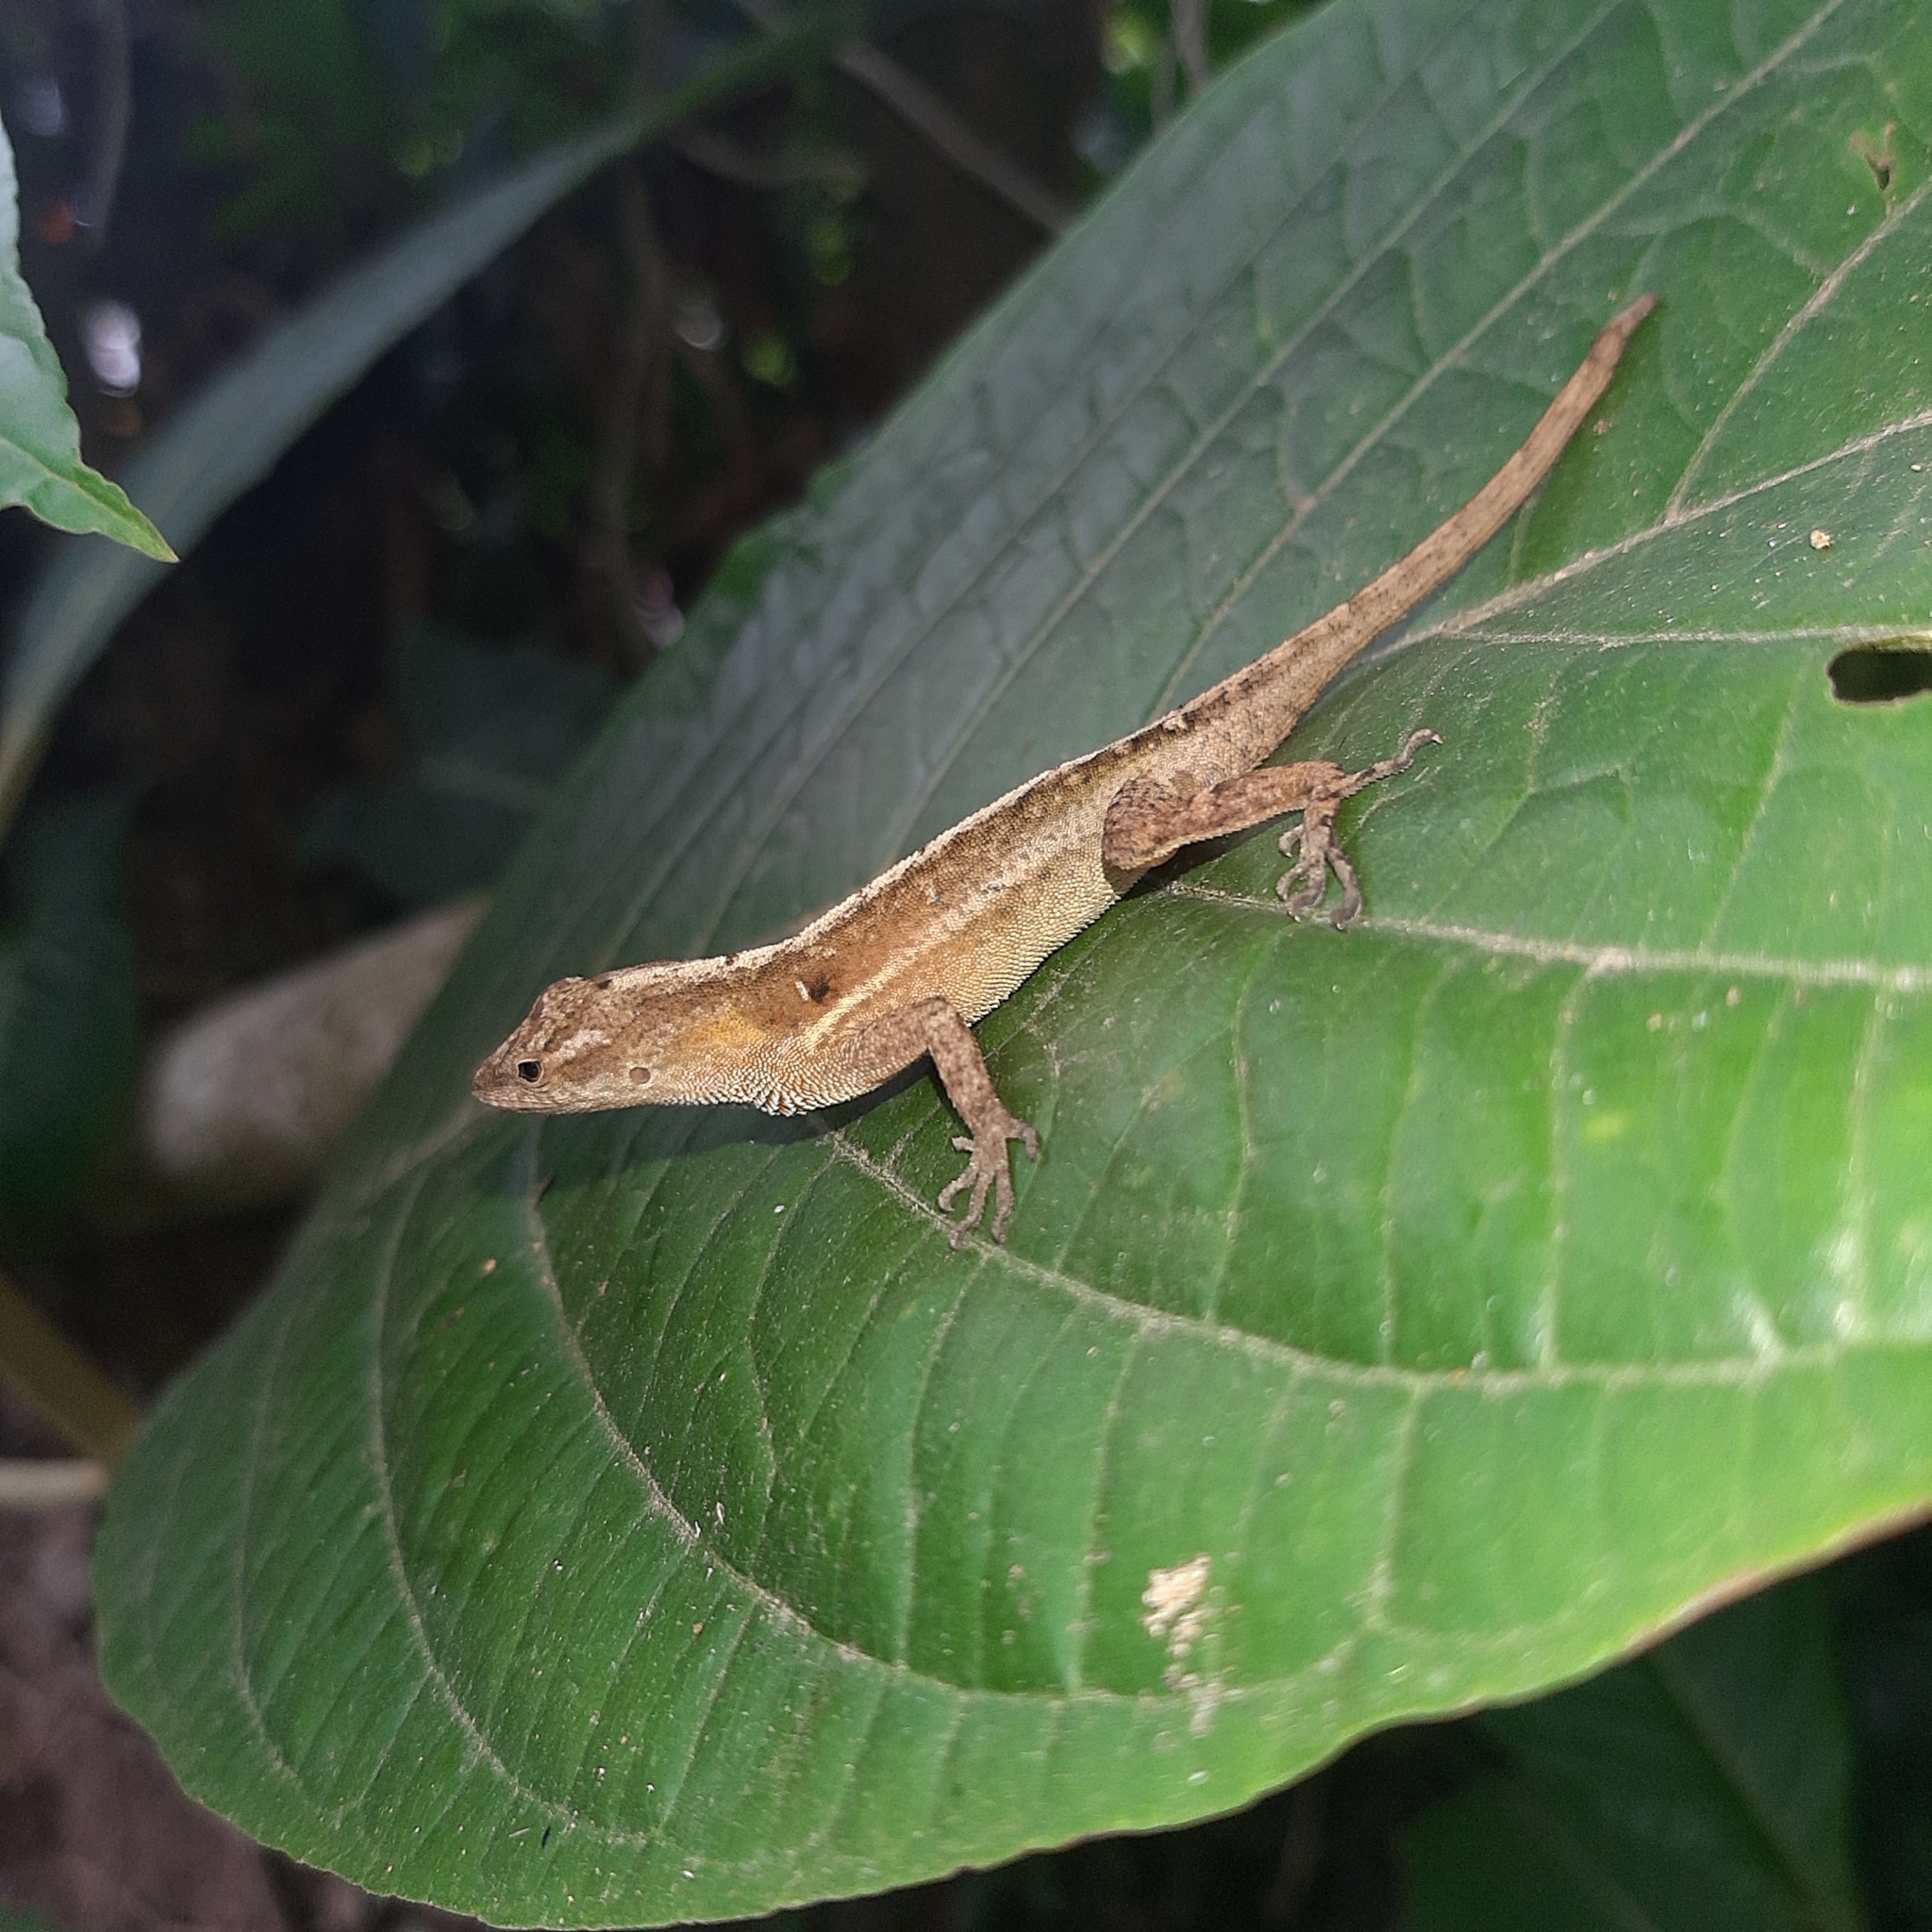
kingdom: Animalia
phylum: Chordata
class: Squamata
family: Dactyloidae
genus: Anolis
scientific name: Anolis lemurinus
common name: Ghost anole
